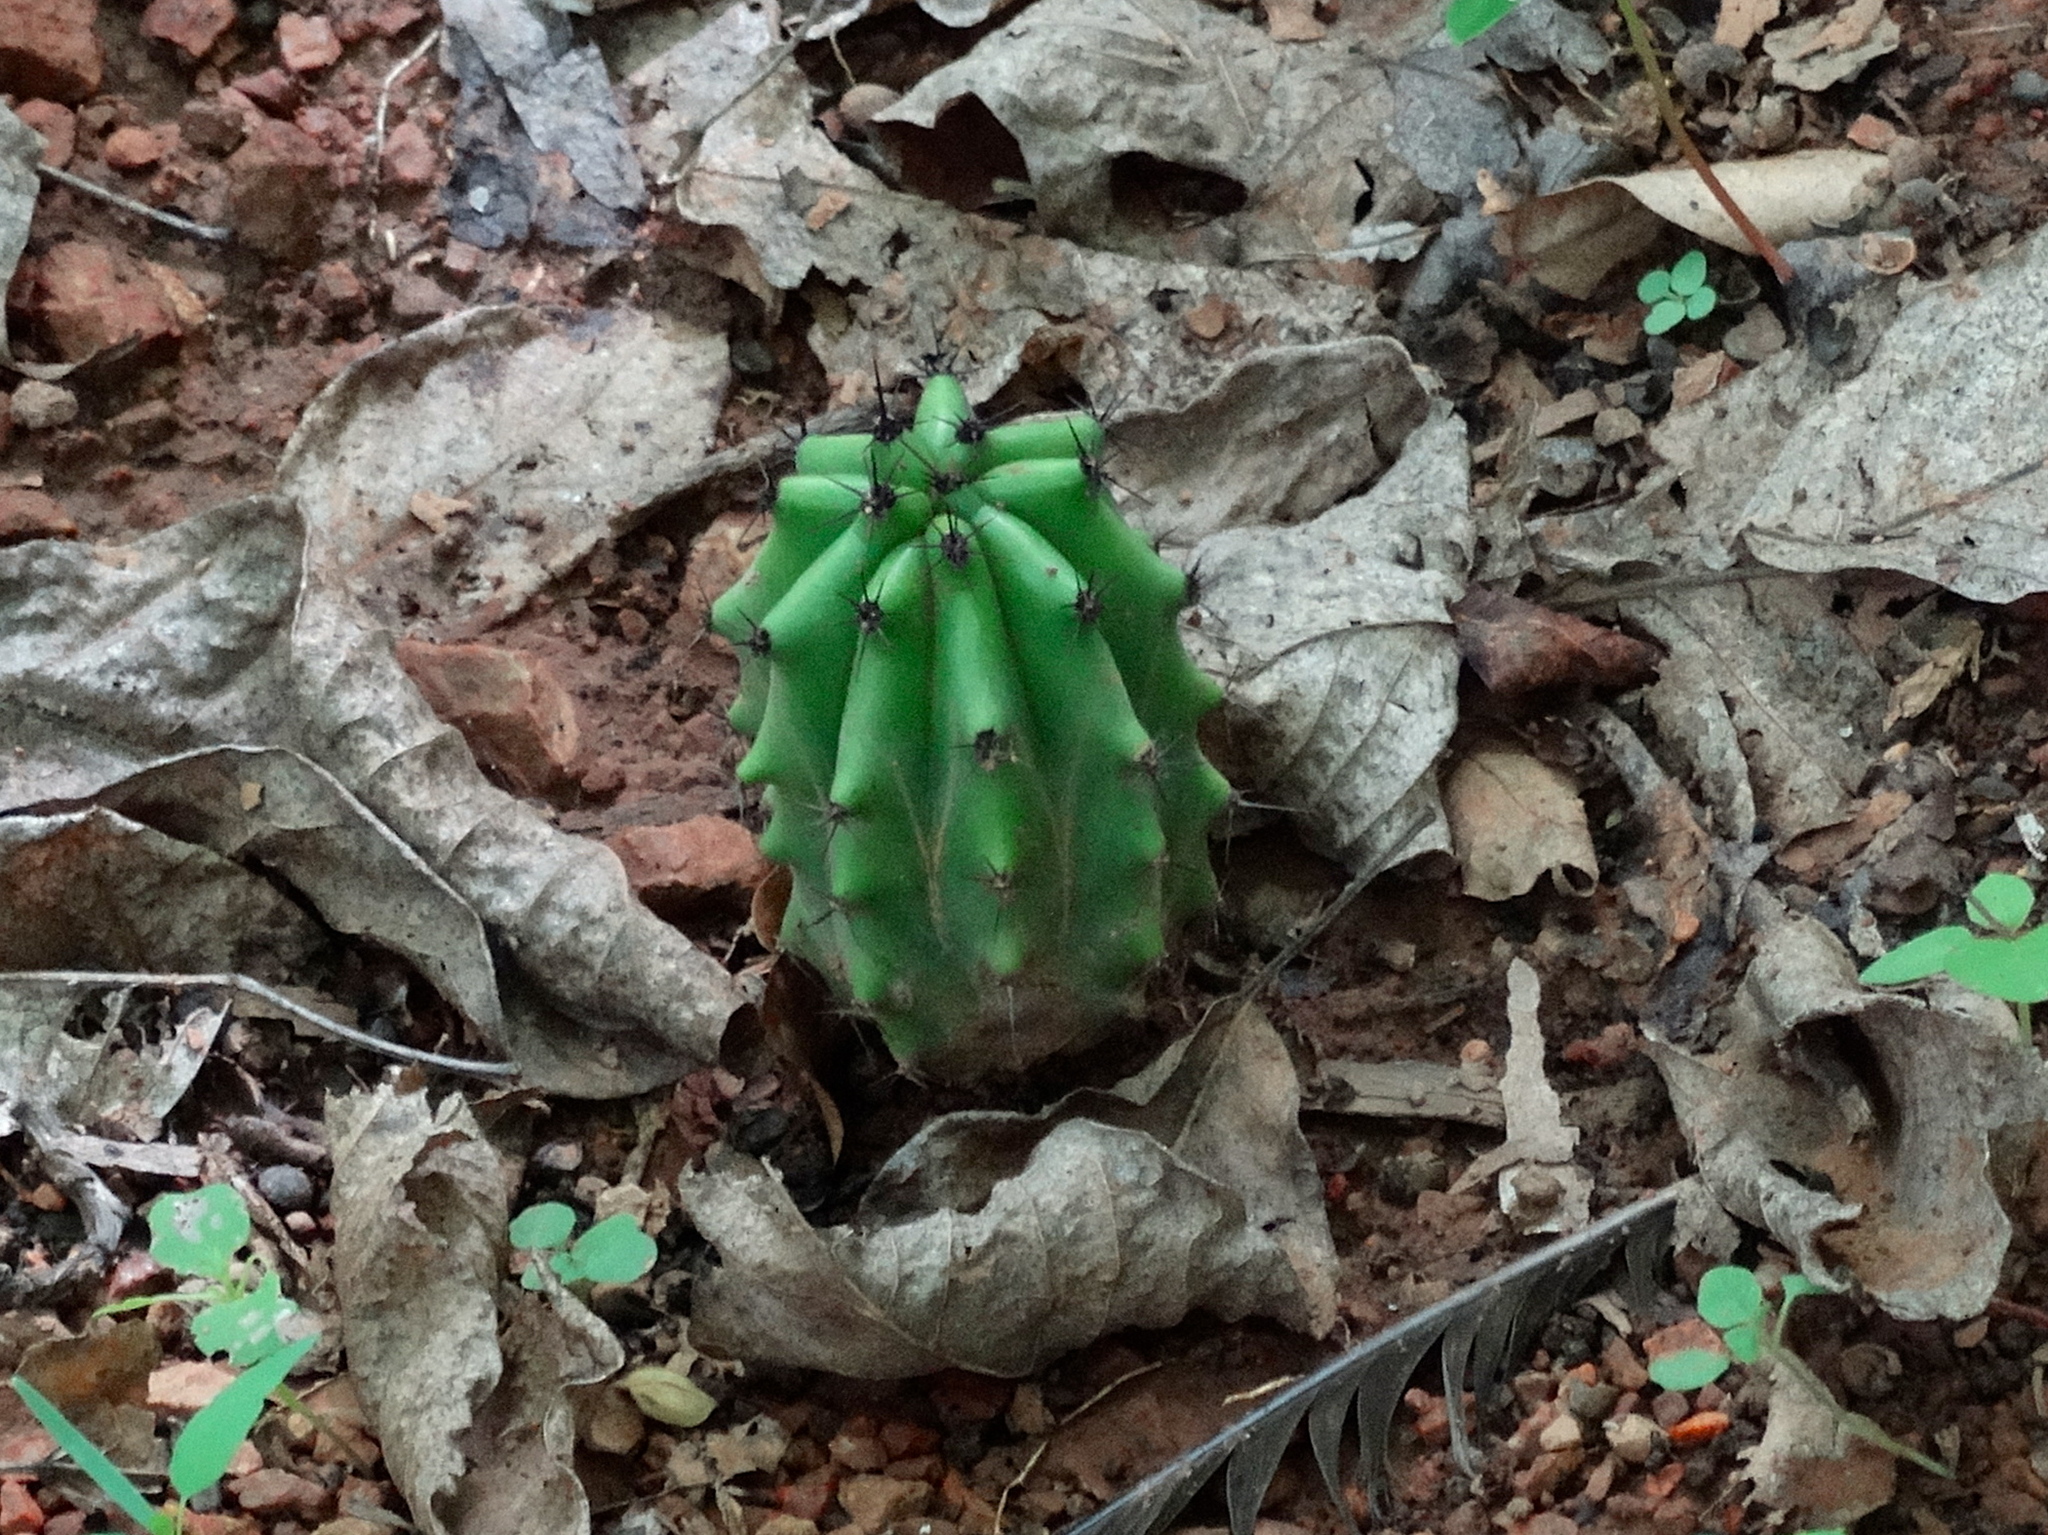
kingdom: Plantae
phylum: Tracheophyta
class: Magnoliopsida
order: Caryophyllales
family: Cactaceae
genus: Stenocereus
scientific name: Stenocereus martinezii
